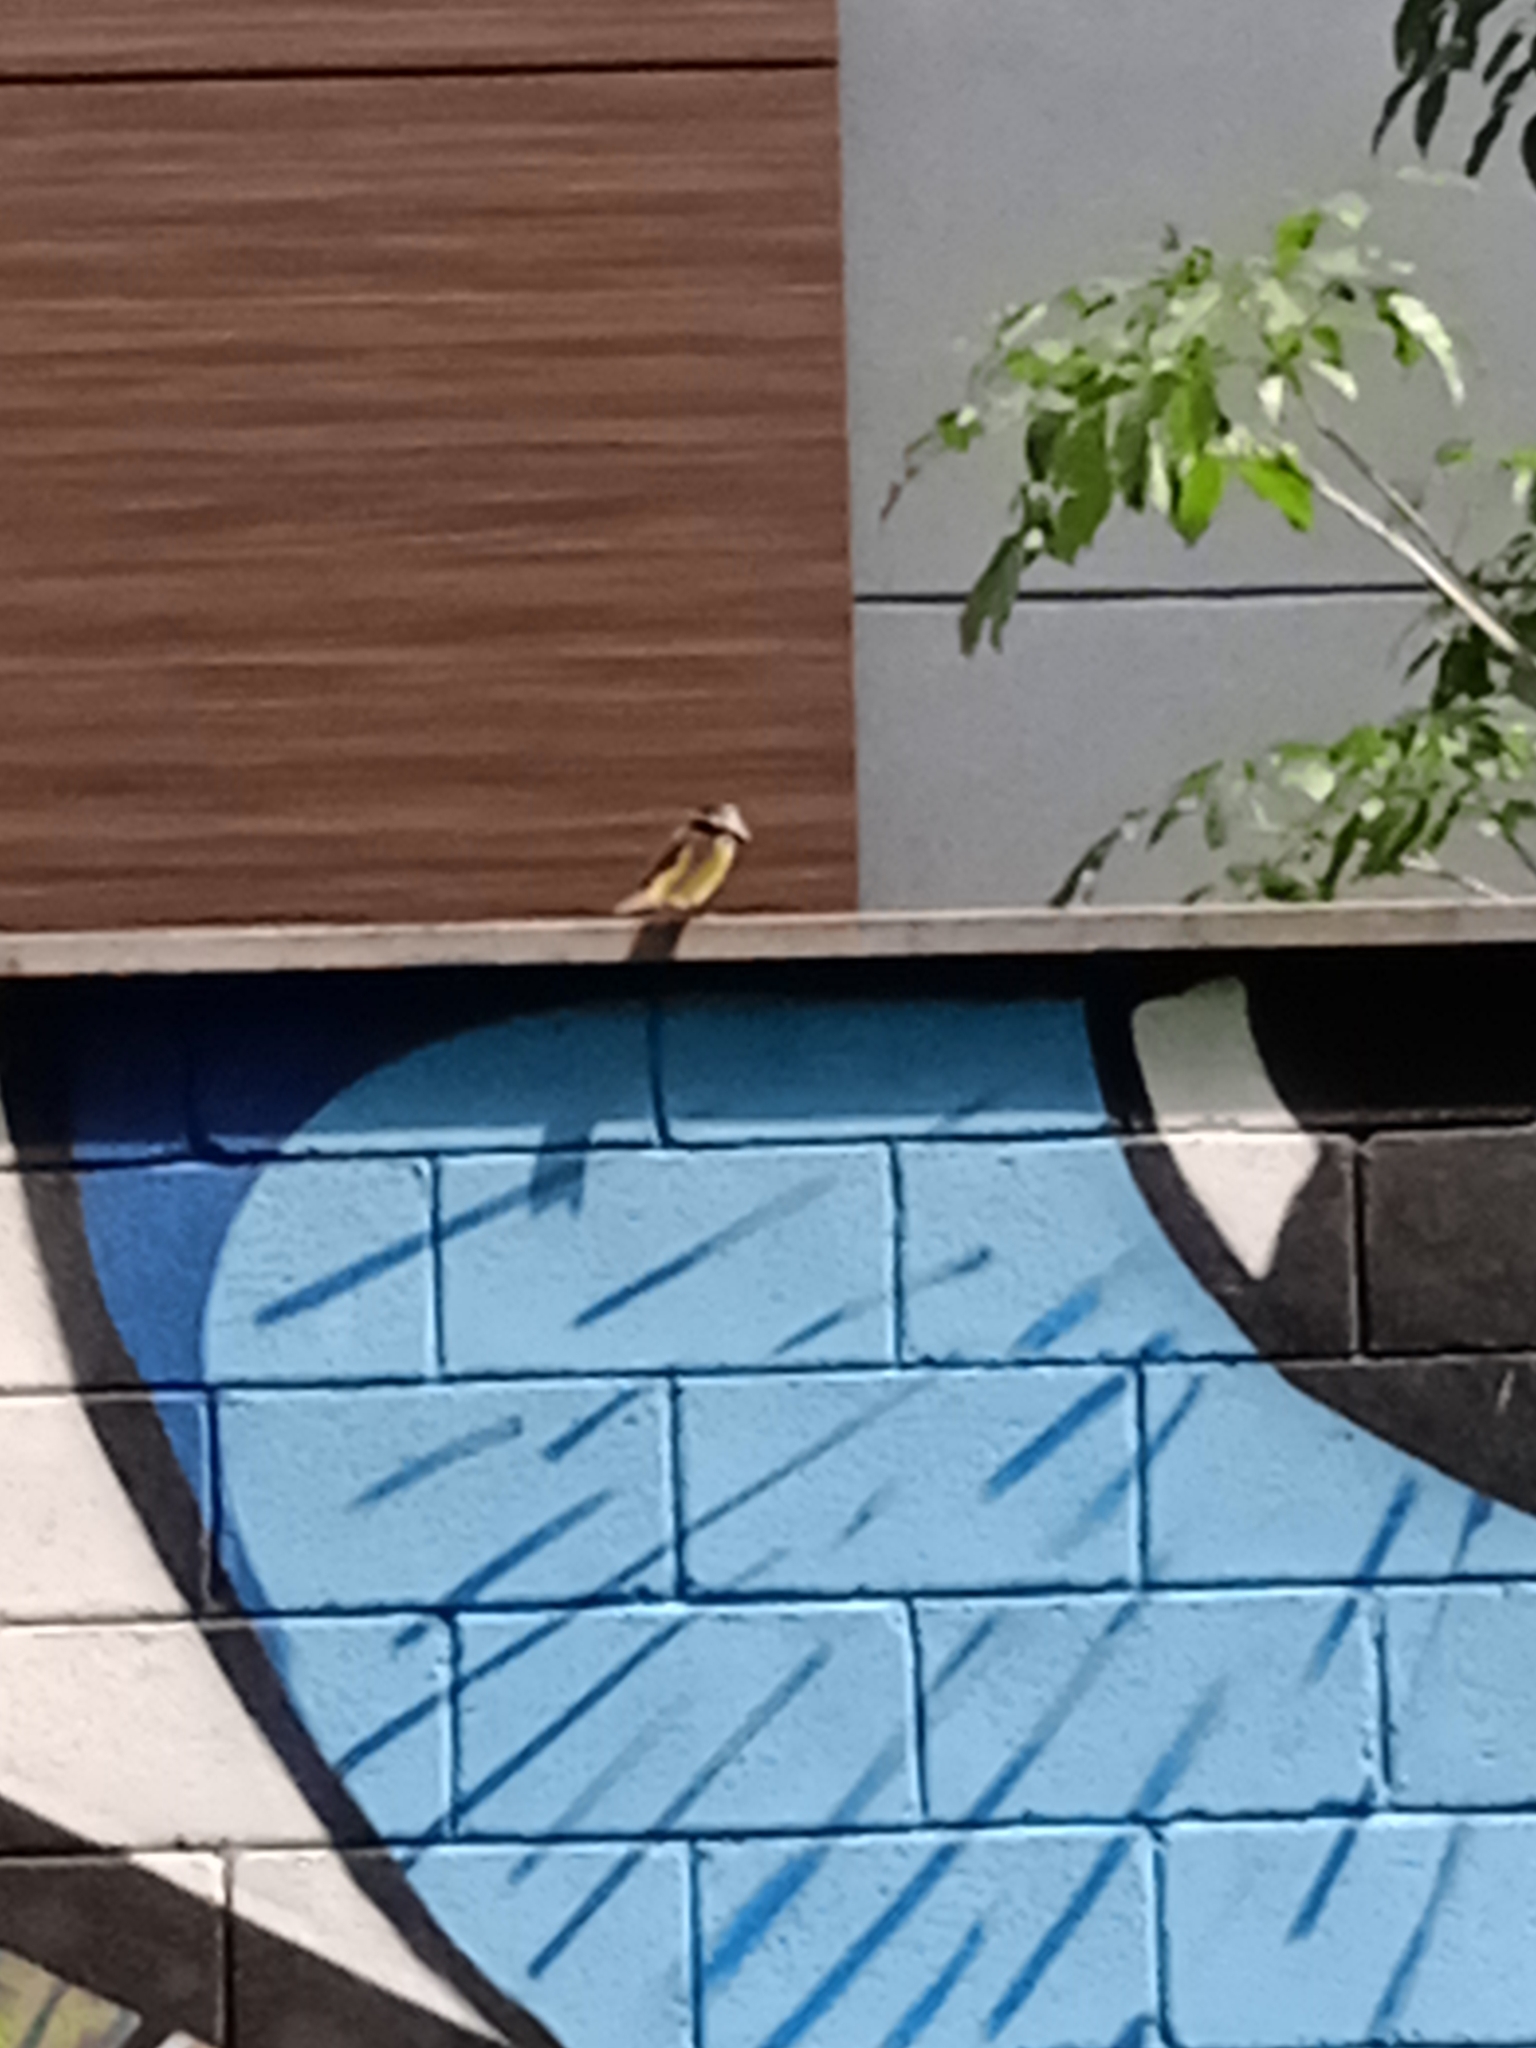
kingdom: Animalia
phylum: Chordata
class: Aves
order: Passeriformes
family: Tyrannidae
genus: Pitangus
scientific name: Pitangus sulphuratus
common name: Great kiskadee
